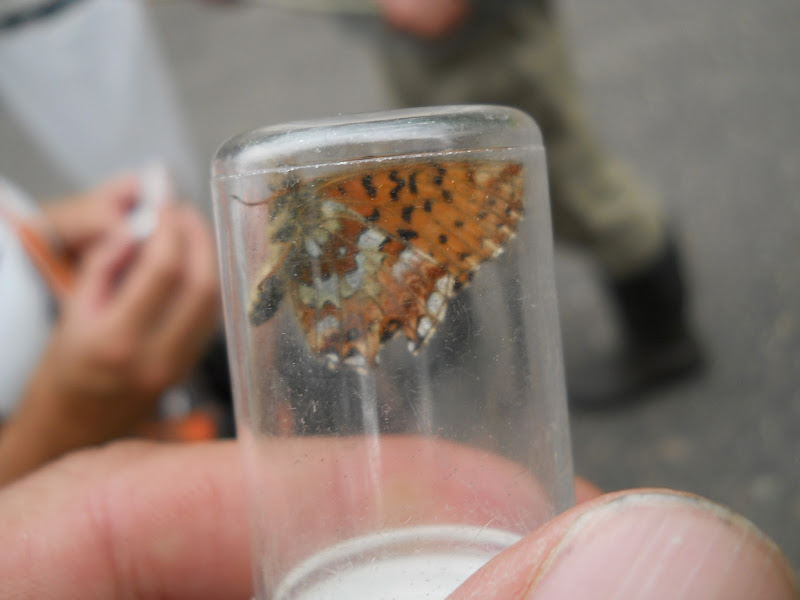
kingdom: Animalia
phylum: Arthropoda
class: Insecta
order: Lepidoptera
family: Nymphalidae
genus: Boloria
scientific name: Boloria aquilonaris
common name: Cranberry fritillary
